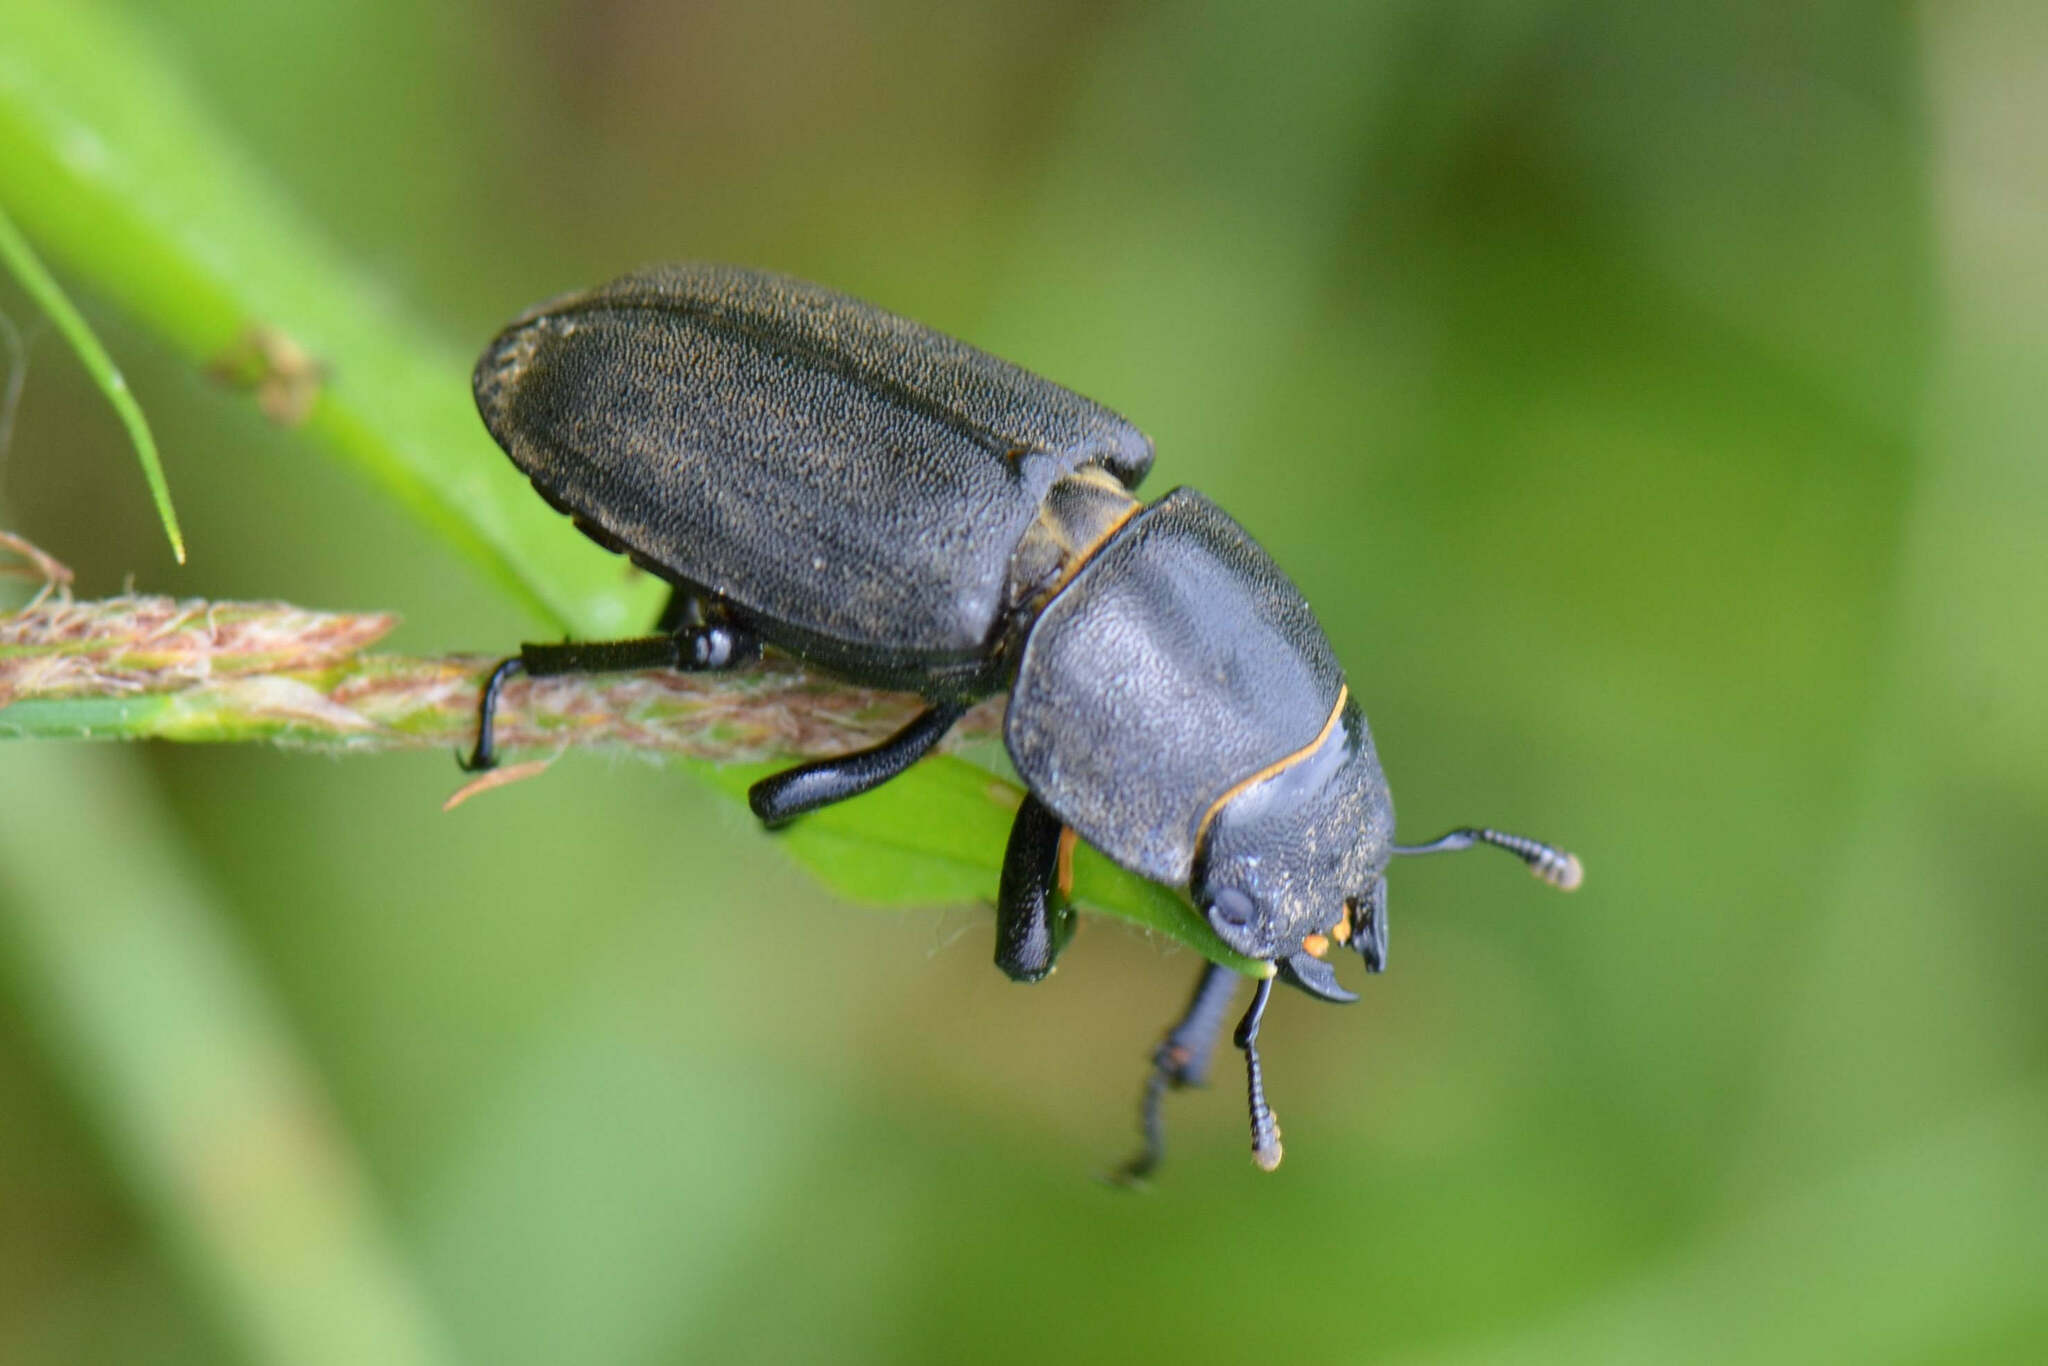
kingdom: Animalia
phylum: Arthropoda
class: Insecta
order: Coleoptera
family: Lucanidae
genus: Dorcus
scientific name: Dorcus parallelipipedus
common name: Lesser stag beetle
